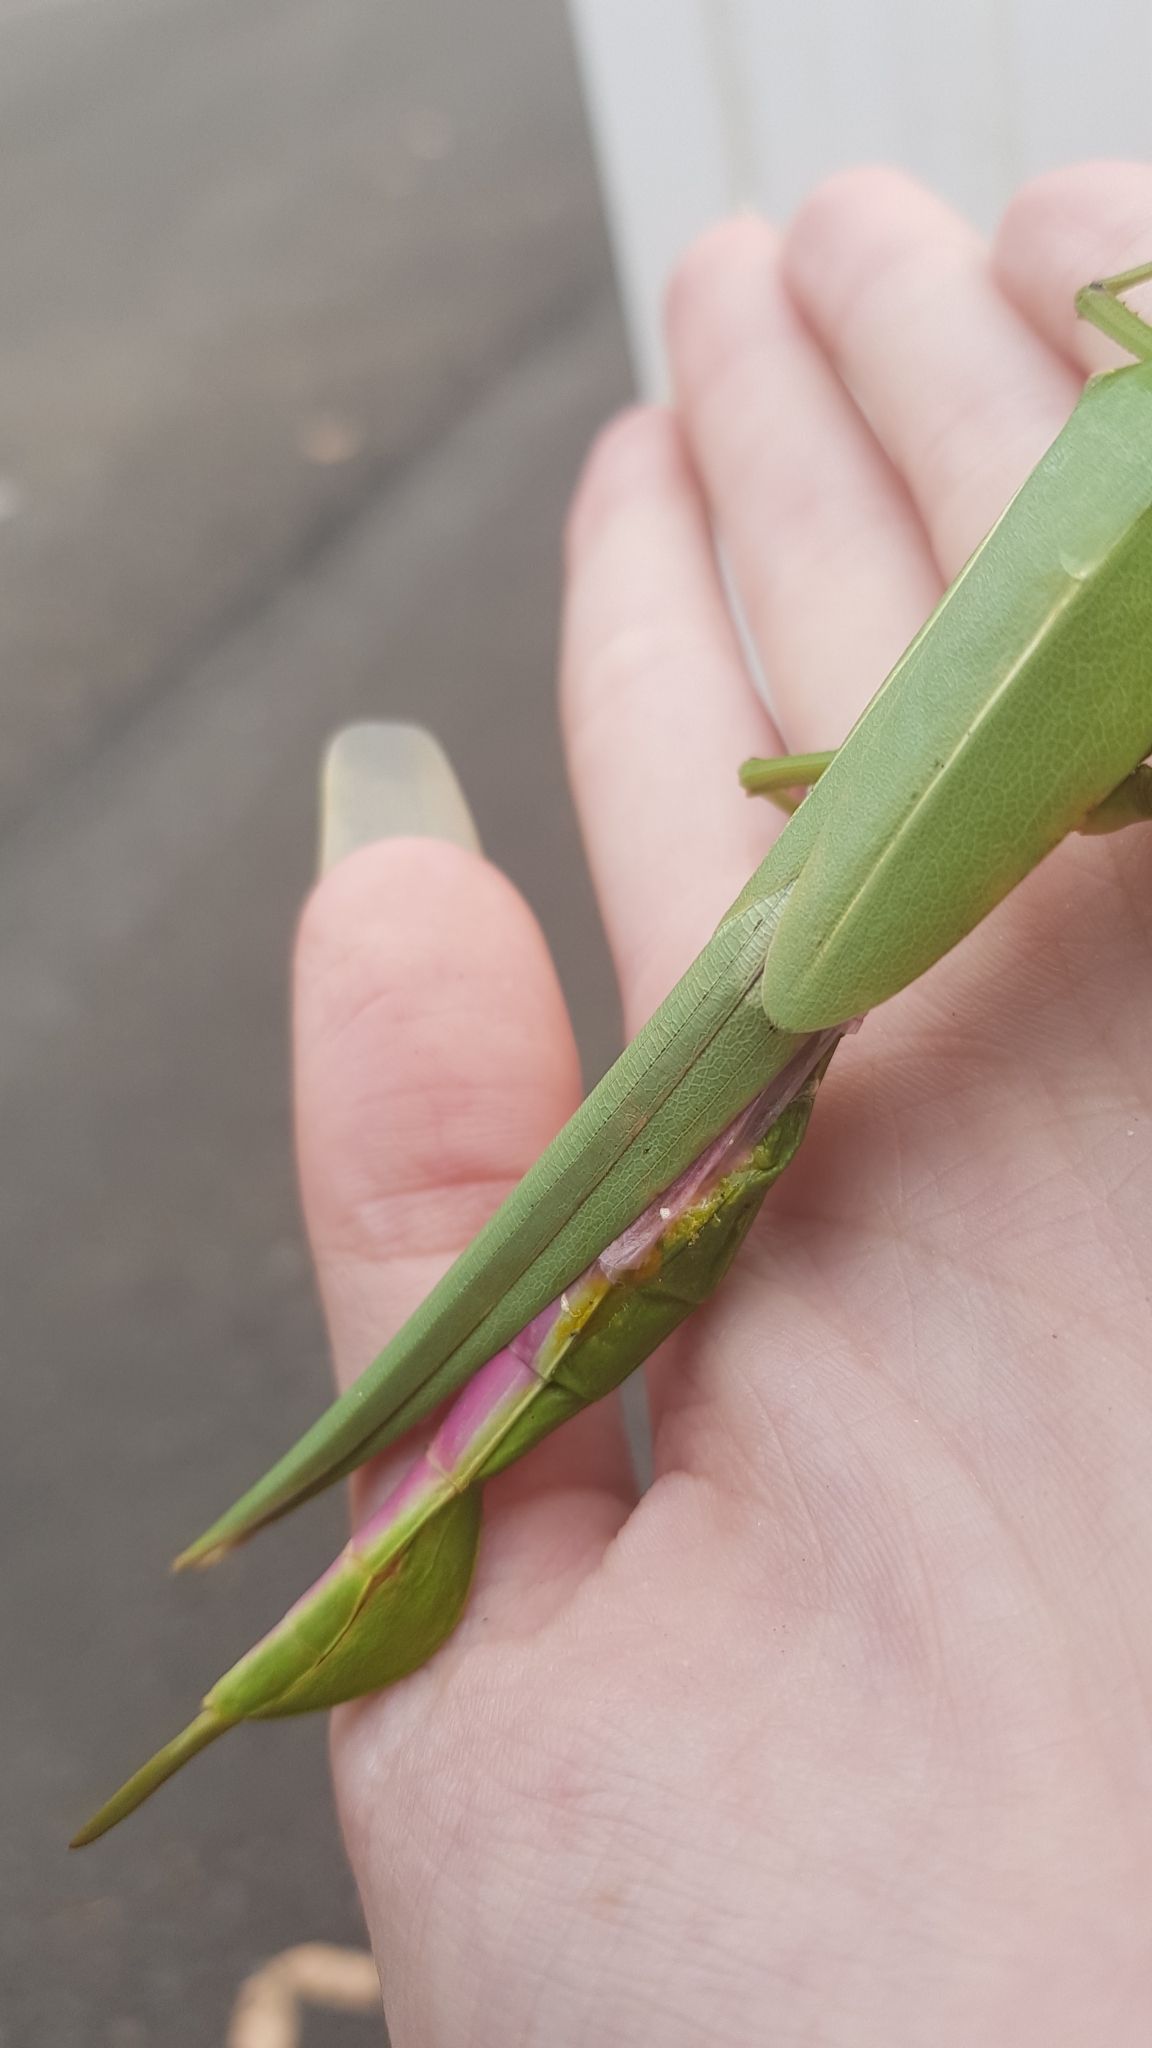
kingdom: Animalia
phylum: Arthropoda
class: Insecta
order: Phasmida
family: Phasmatidae
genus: Podacanthus
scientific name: Podacanthus viridiroseus
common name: Red-winged stick-insect
